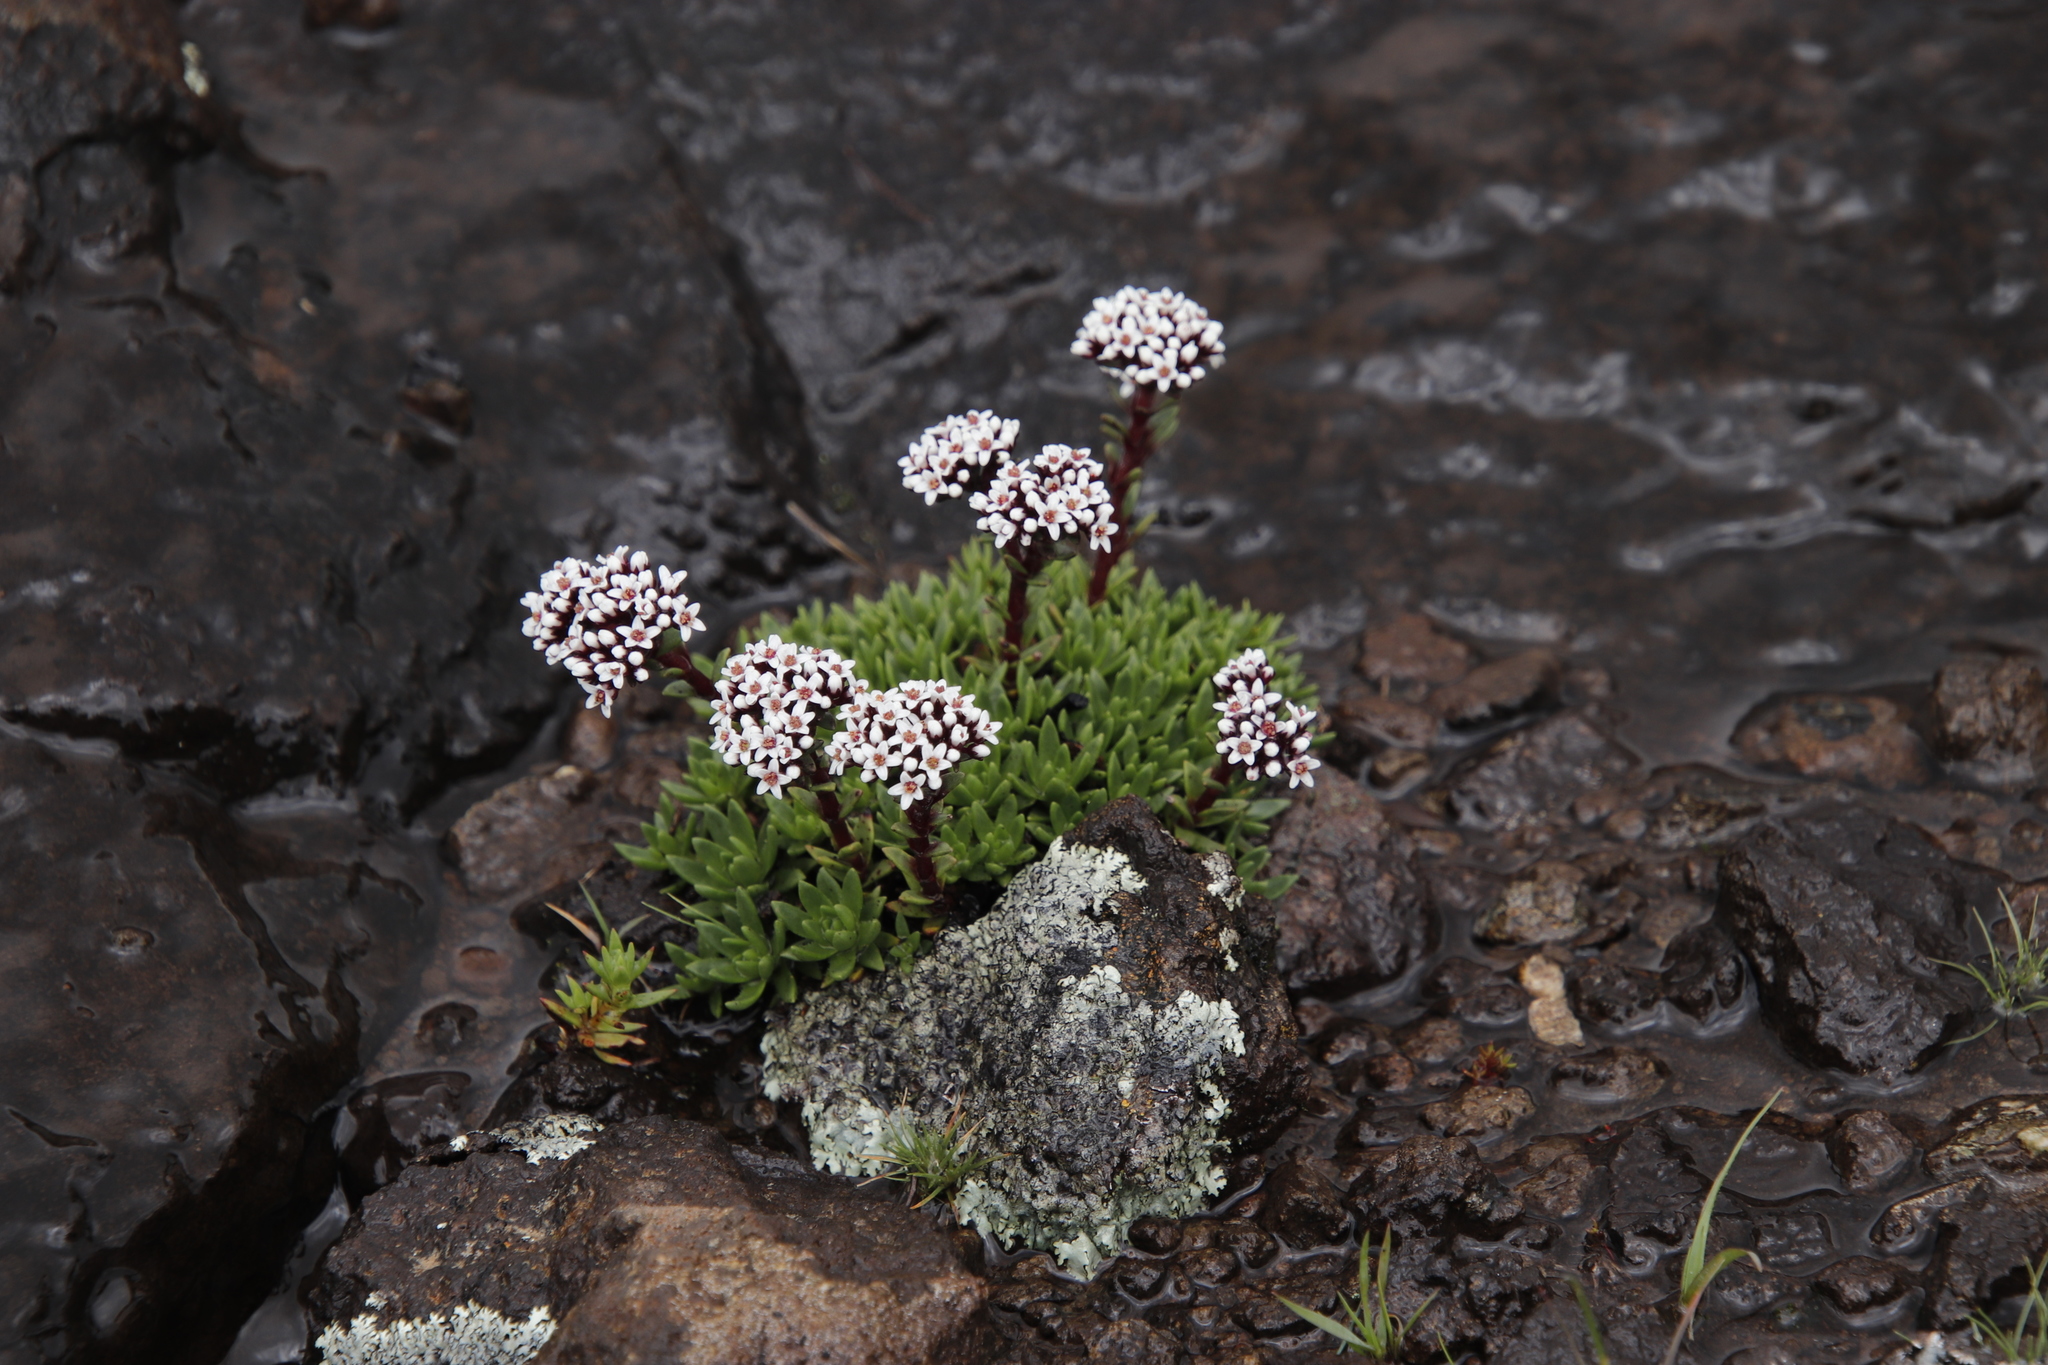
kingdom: Plantae
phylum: Tracheophyta
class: Magnoliopsida
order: Saxifragales
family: Crassulaceae
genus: Crassula
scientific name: Crassula setulosa
